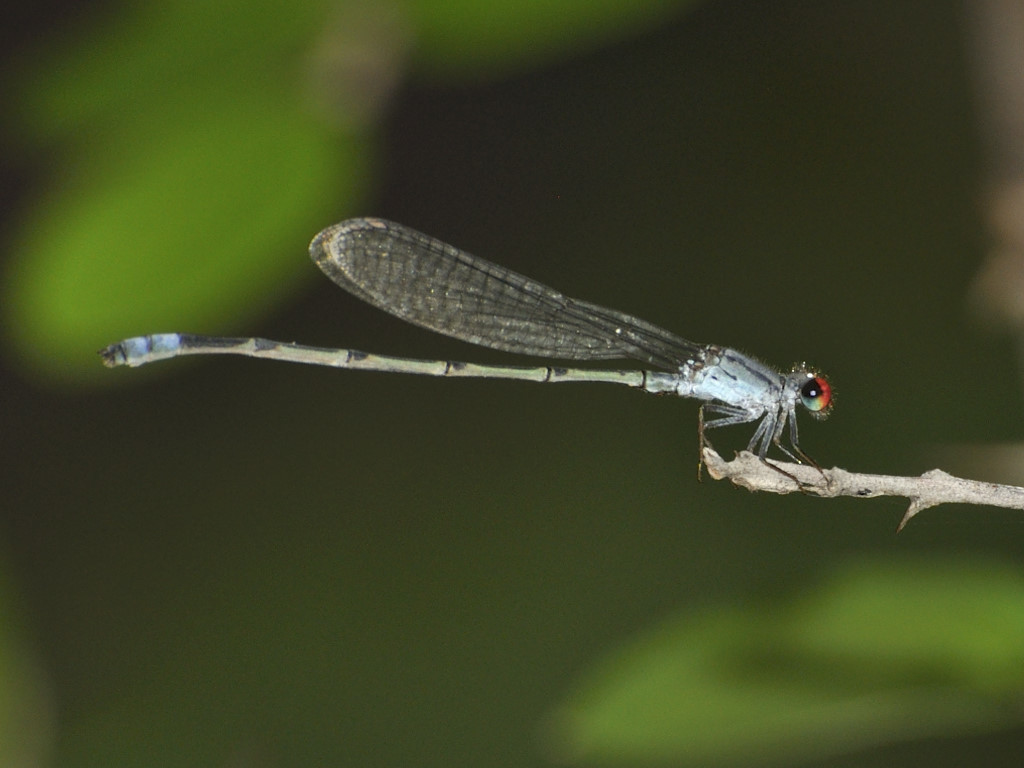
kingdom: Animalia
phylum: Arthropoda
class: Insecta
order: Odonata
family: Coenagrionidae
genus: Pseudagrion
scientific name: Pseudagrion sublacteum
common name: Cherry-eye sprite
